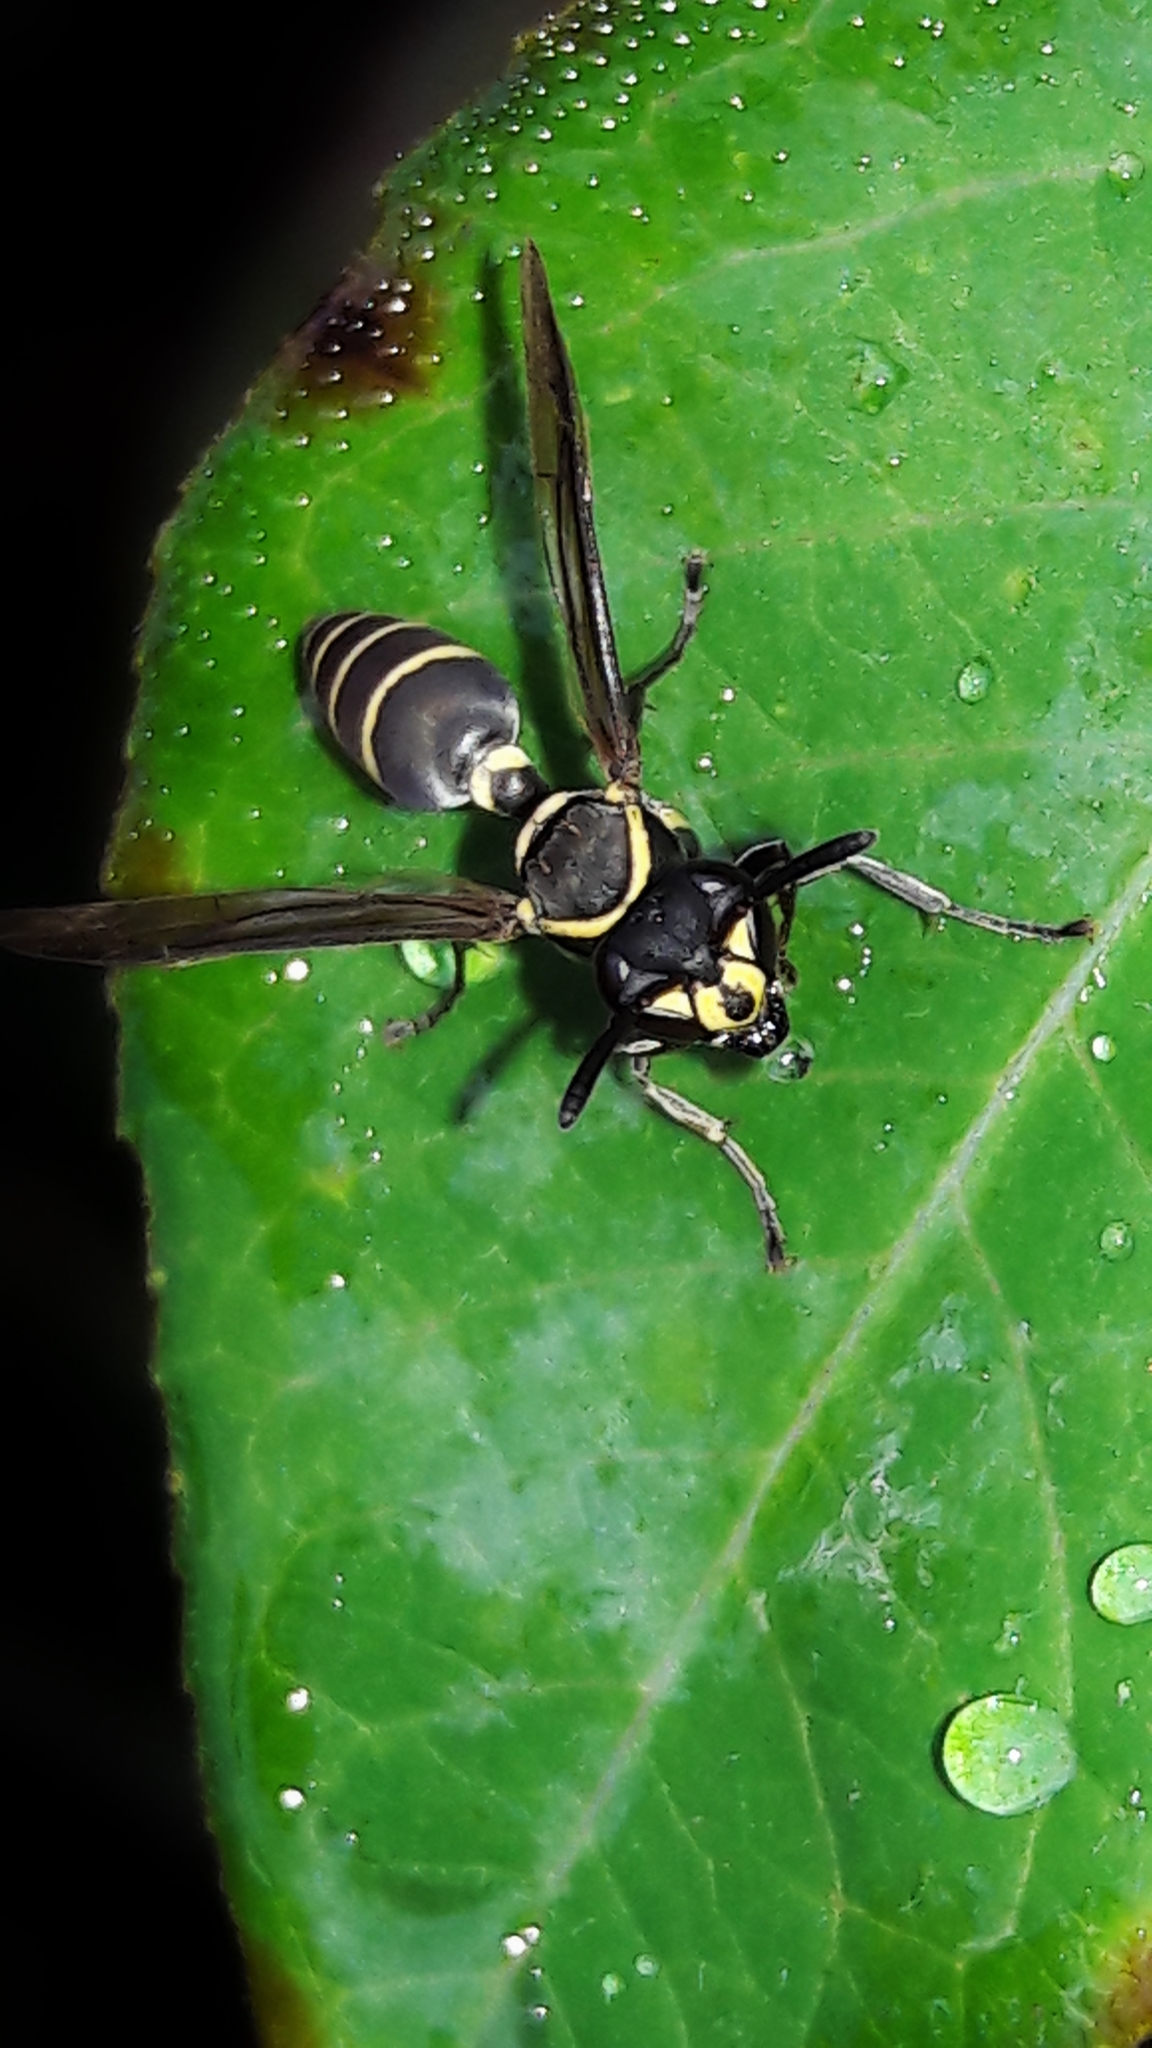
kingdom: Animalia
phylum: Arthropoda
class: Insecta
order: Hymenoptera
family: Eumenidae
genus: Polybia
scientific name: Polybia occidentalis
